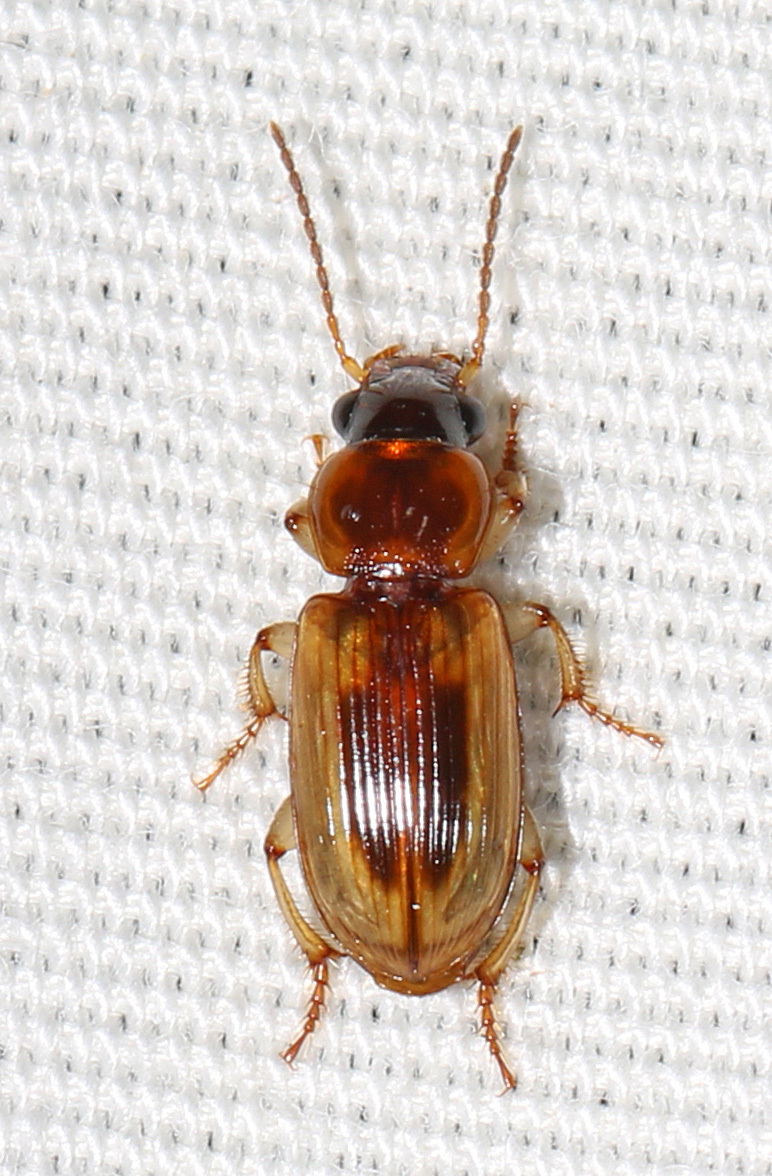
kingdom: Animalia
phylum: Arthropoda
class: Insecta
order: Coleoptera
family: Carabidae
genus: Stenolophus
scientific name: Stenolophus
